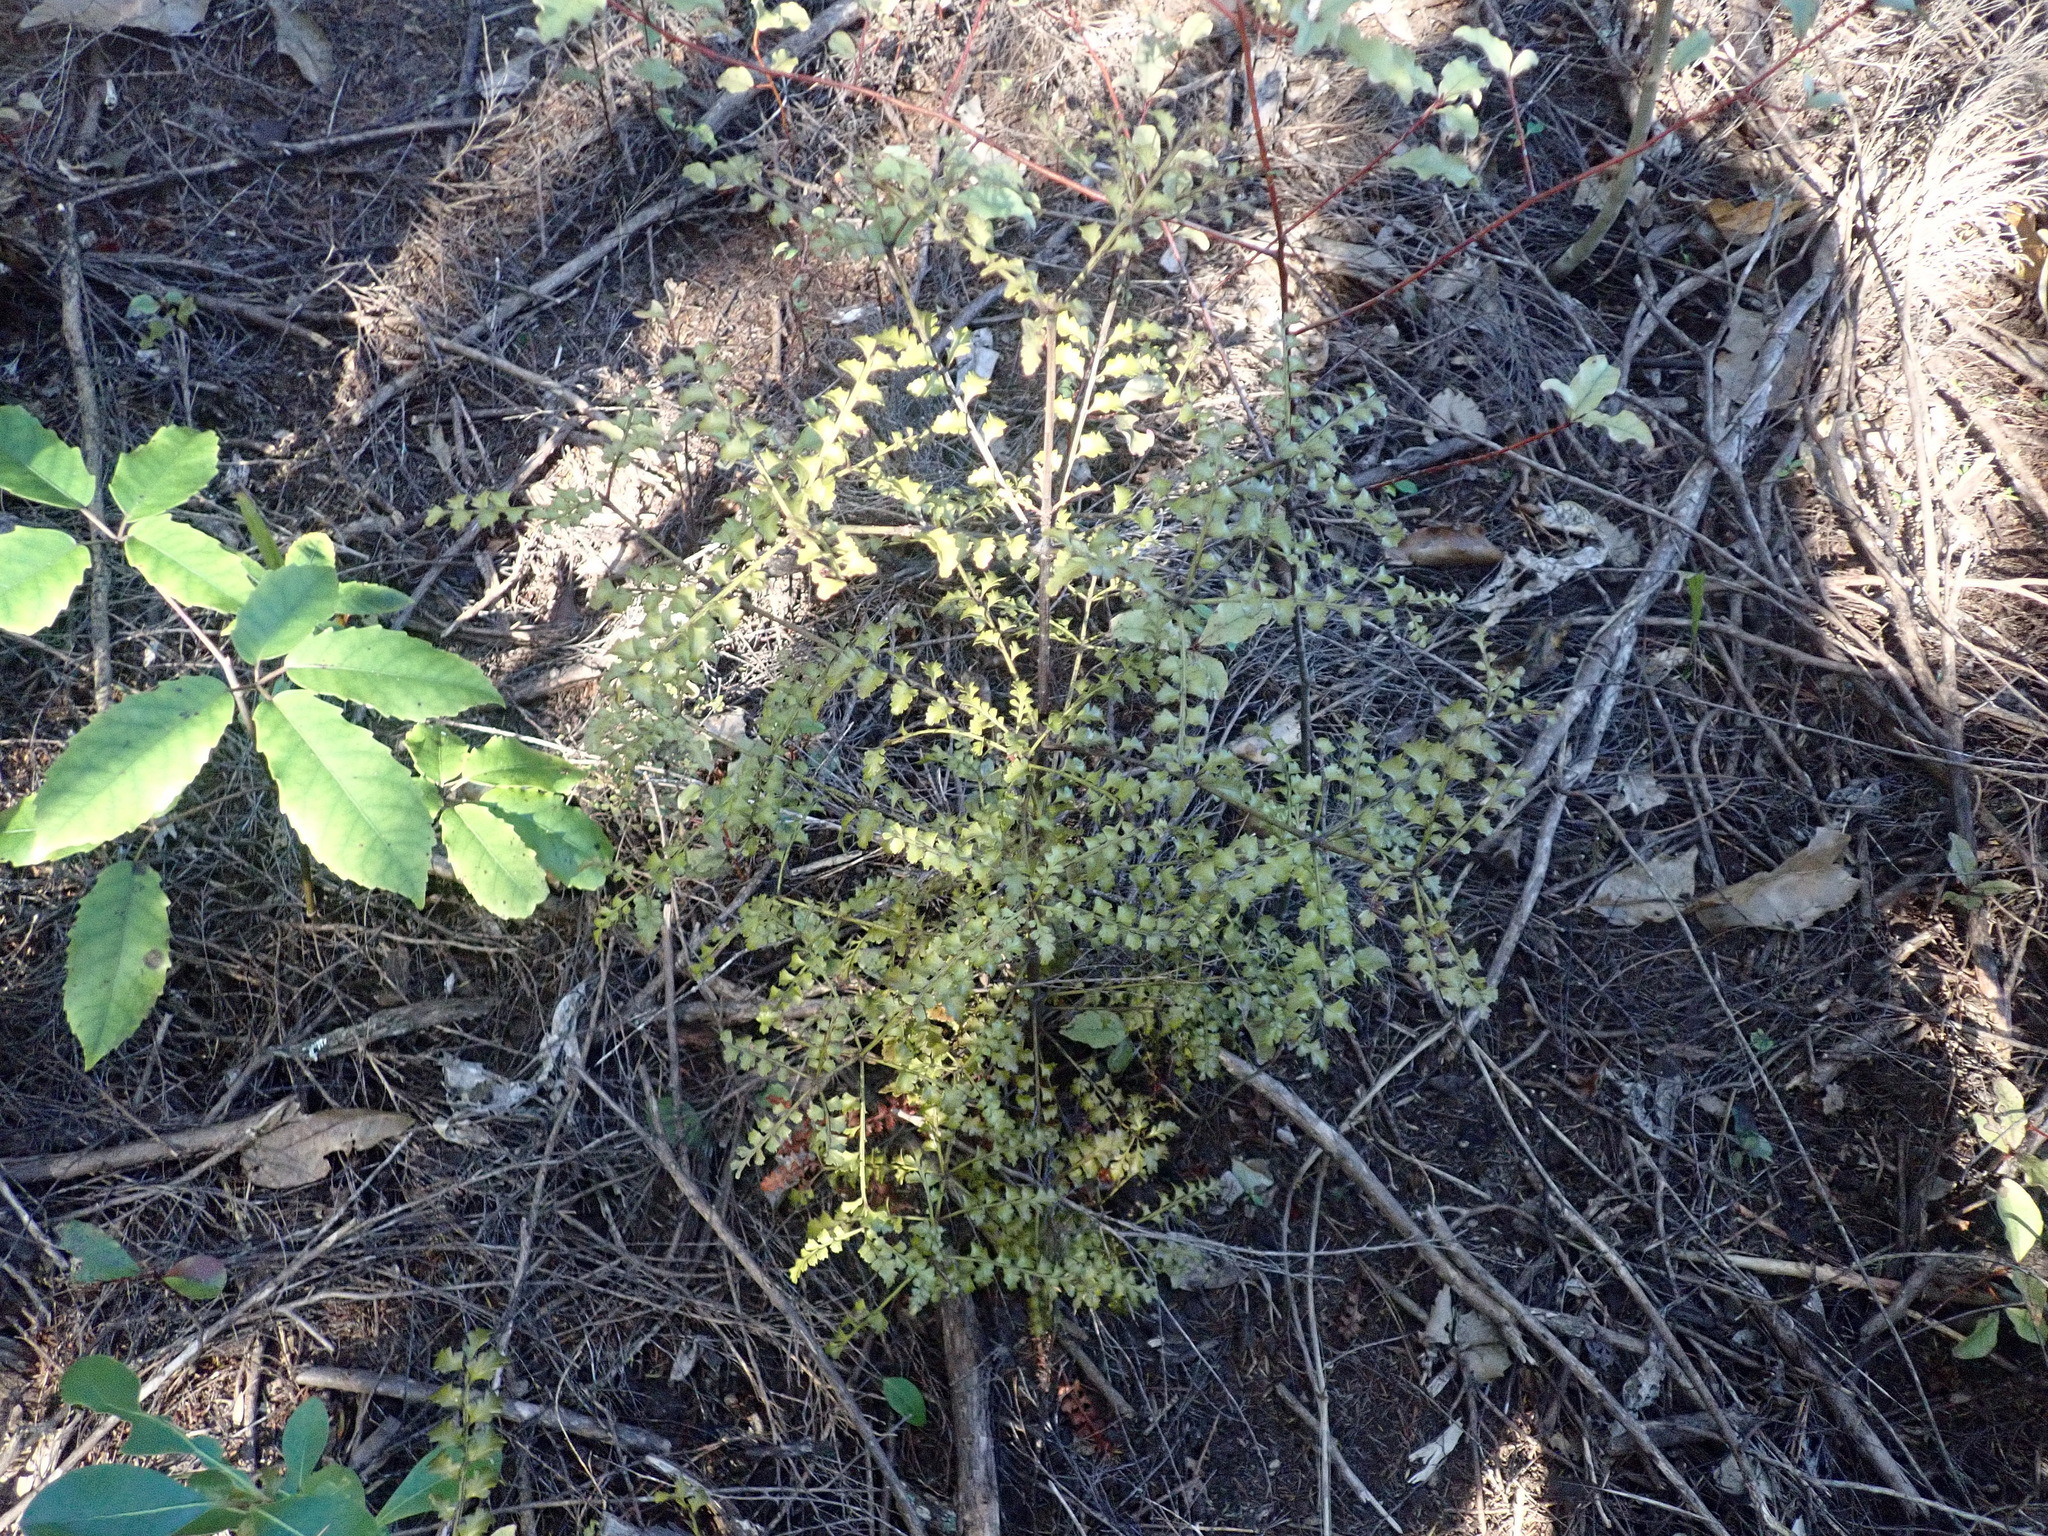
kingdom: Plantae
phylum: Tracheophyta
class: Pinopsida
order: Pinales
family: Phyllocladaceae
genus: Phyllocladus
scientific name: Phyllocladus trichomanoides
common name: Celery pine
